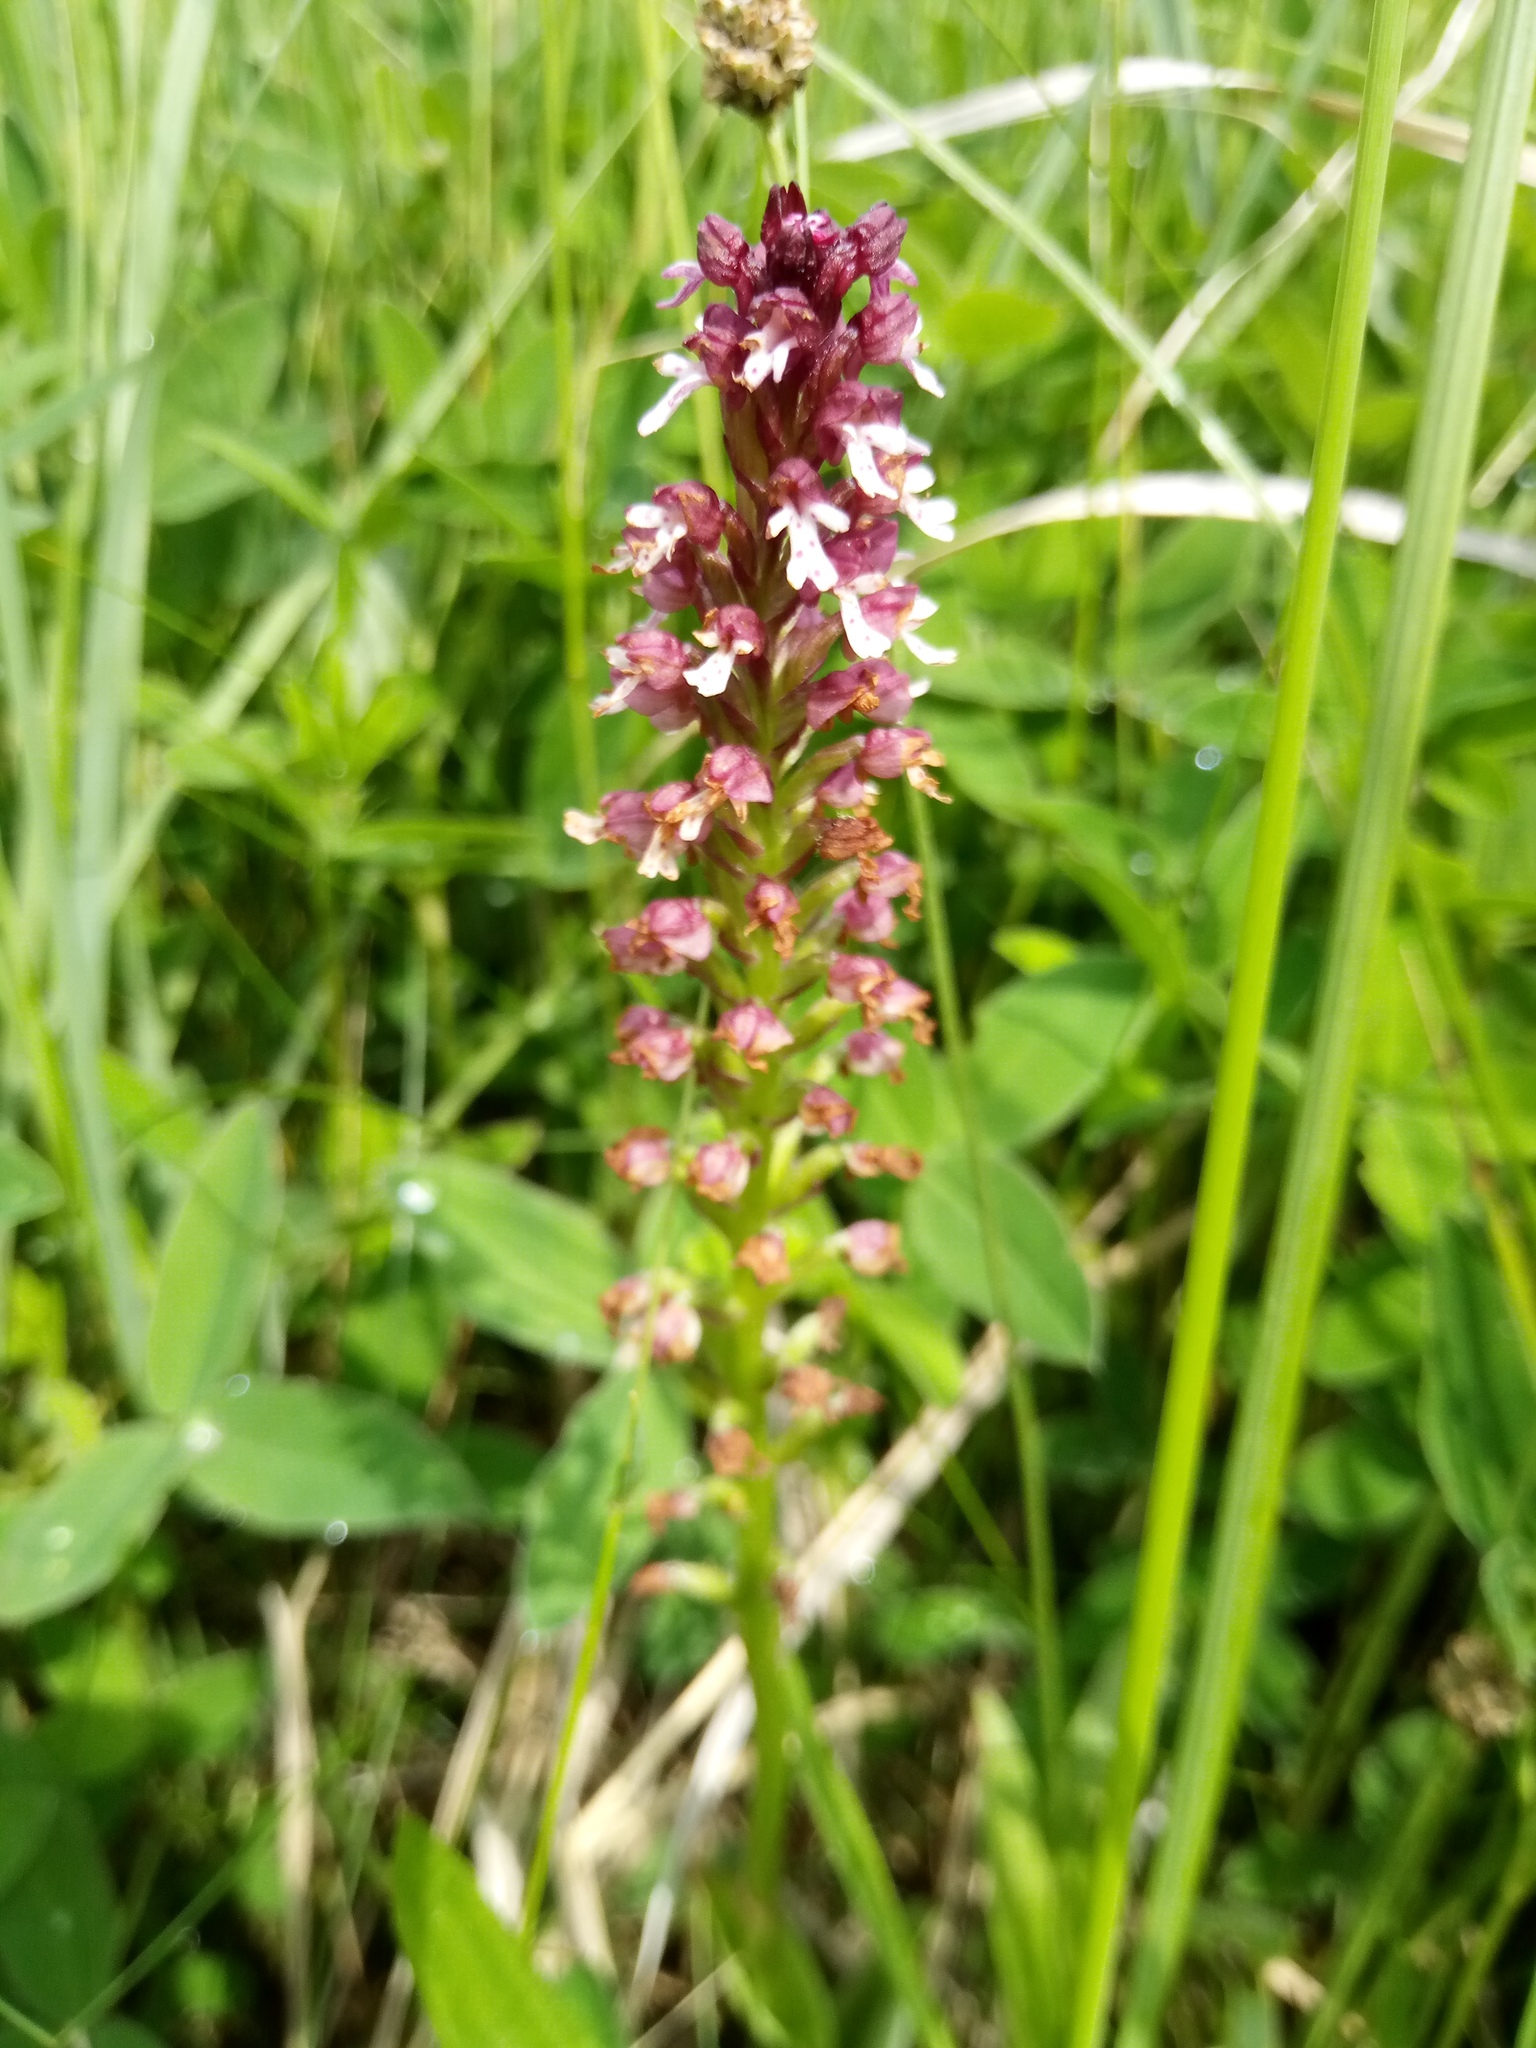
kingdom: Plantae
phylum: Tracheophyta
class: Liliopsida
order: Asparagales
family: Orchidaceae
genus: Neotinea
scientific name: Neotinea ustulata
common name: Burnt orchid
